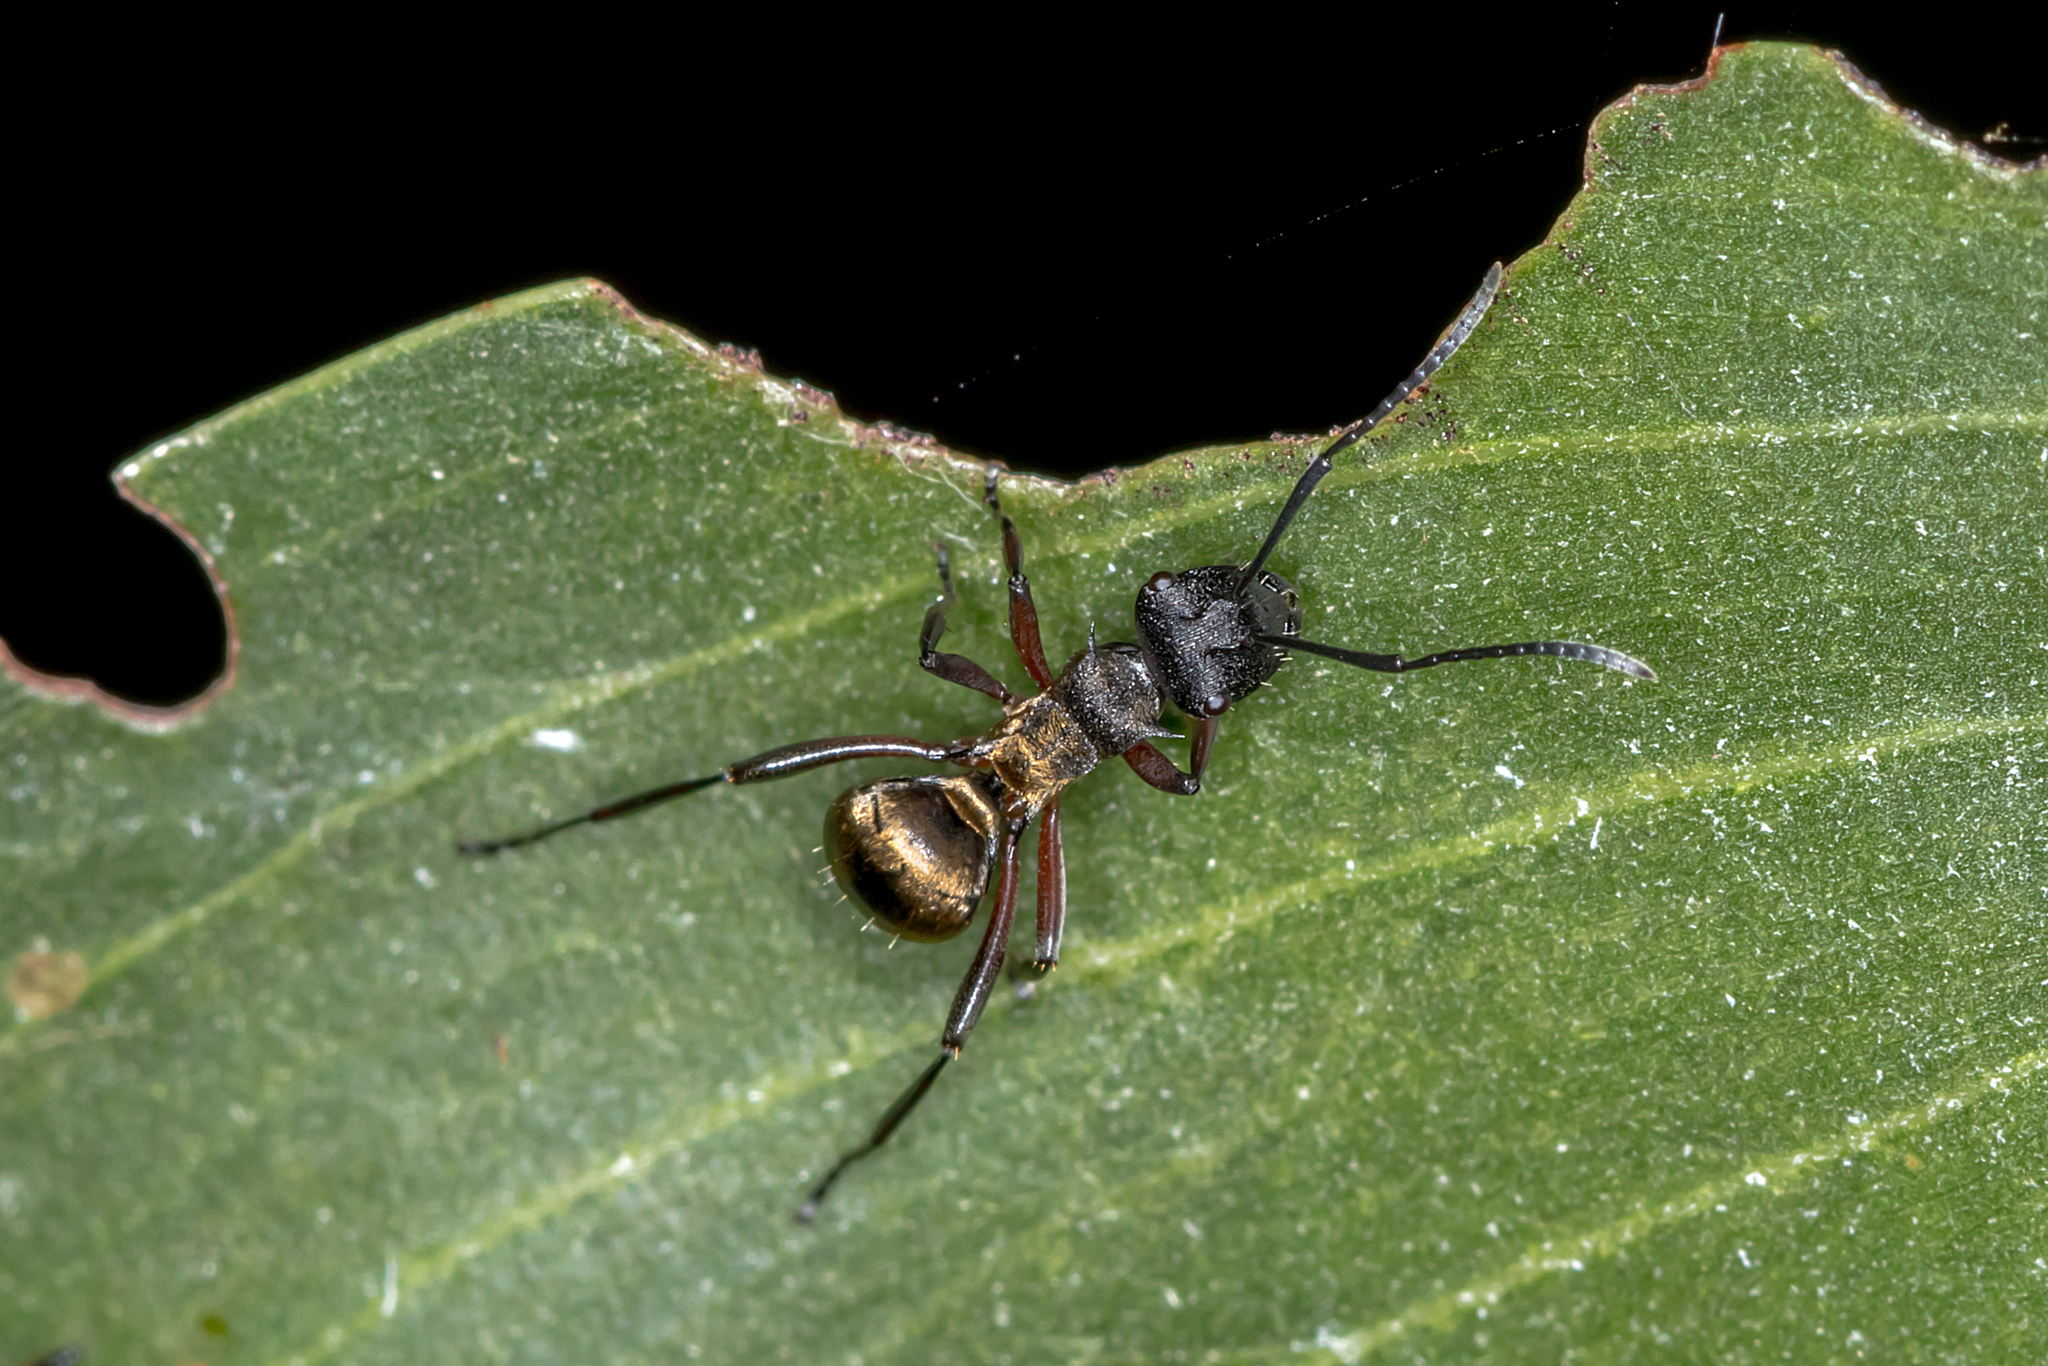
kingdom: Animalia
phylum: Arthropoda
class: Insecta
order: Hymenoptera
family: Formicidae
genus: Polyrhachis
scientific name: Polyrhachis rufifemur
